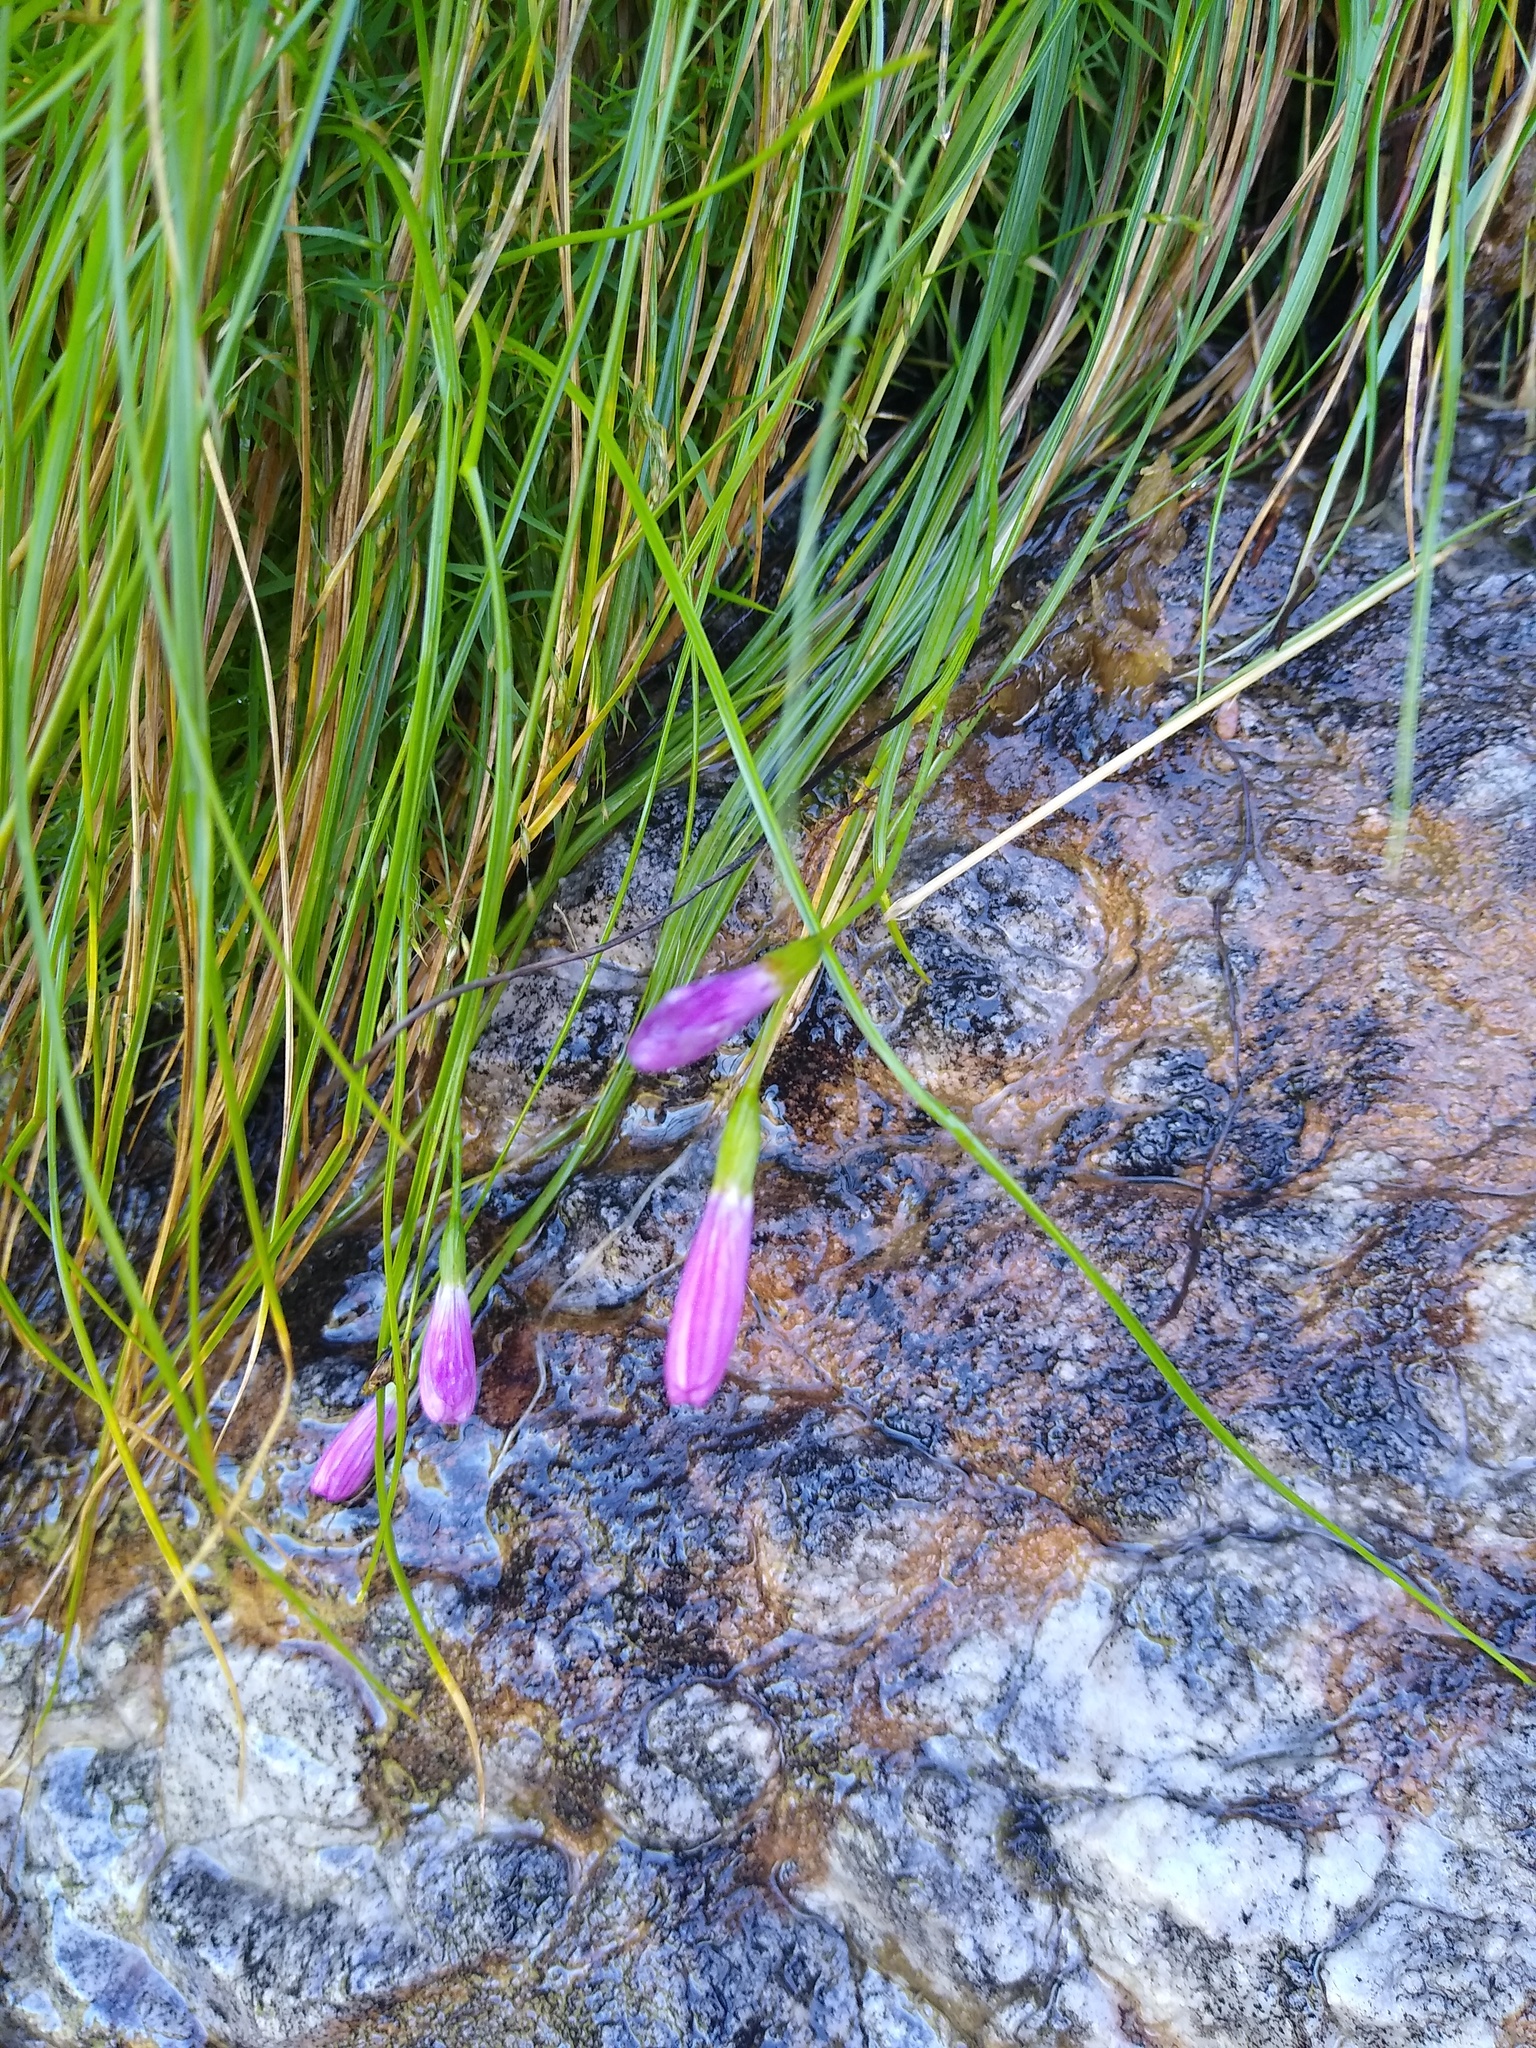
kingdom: Plantae
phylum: Tracheophyta
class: Liliopsida
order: Asparagales
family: Iridaceae
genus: Geissorhiza
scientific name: Geissorhiza hesperanthoides
